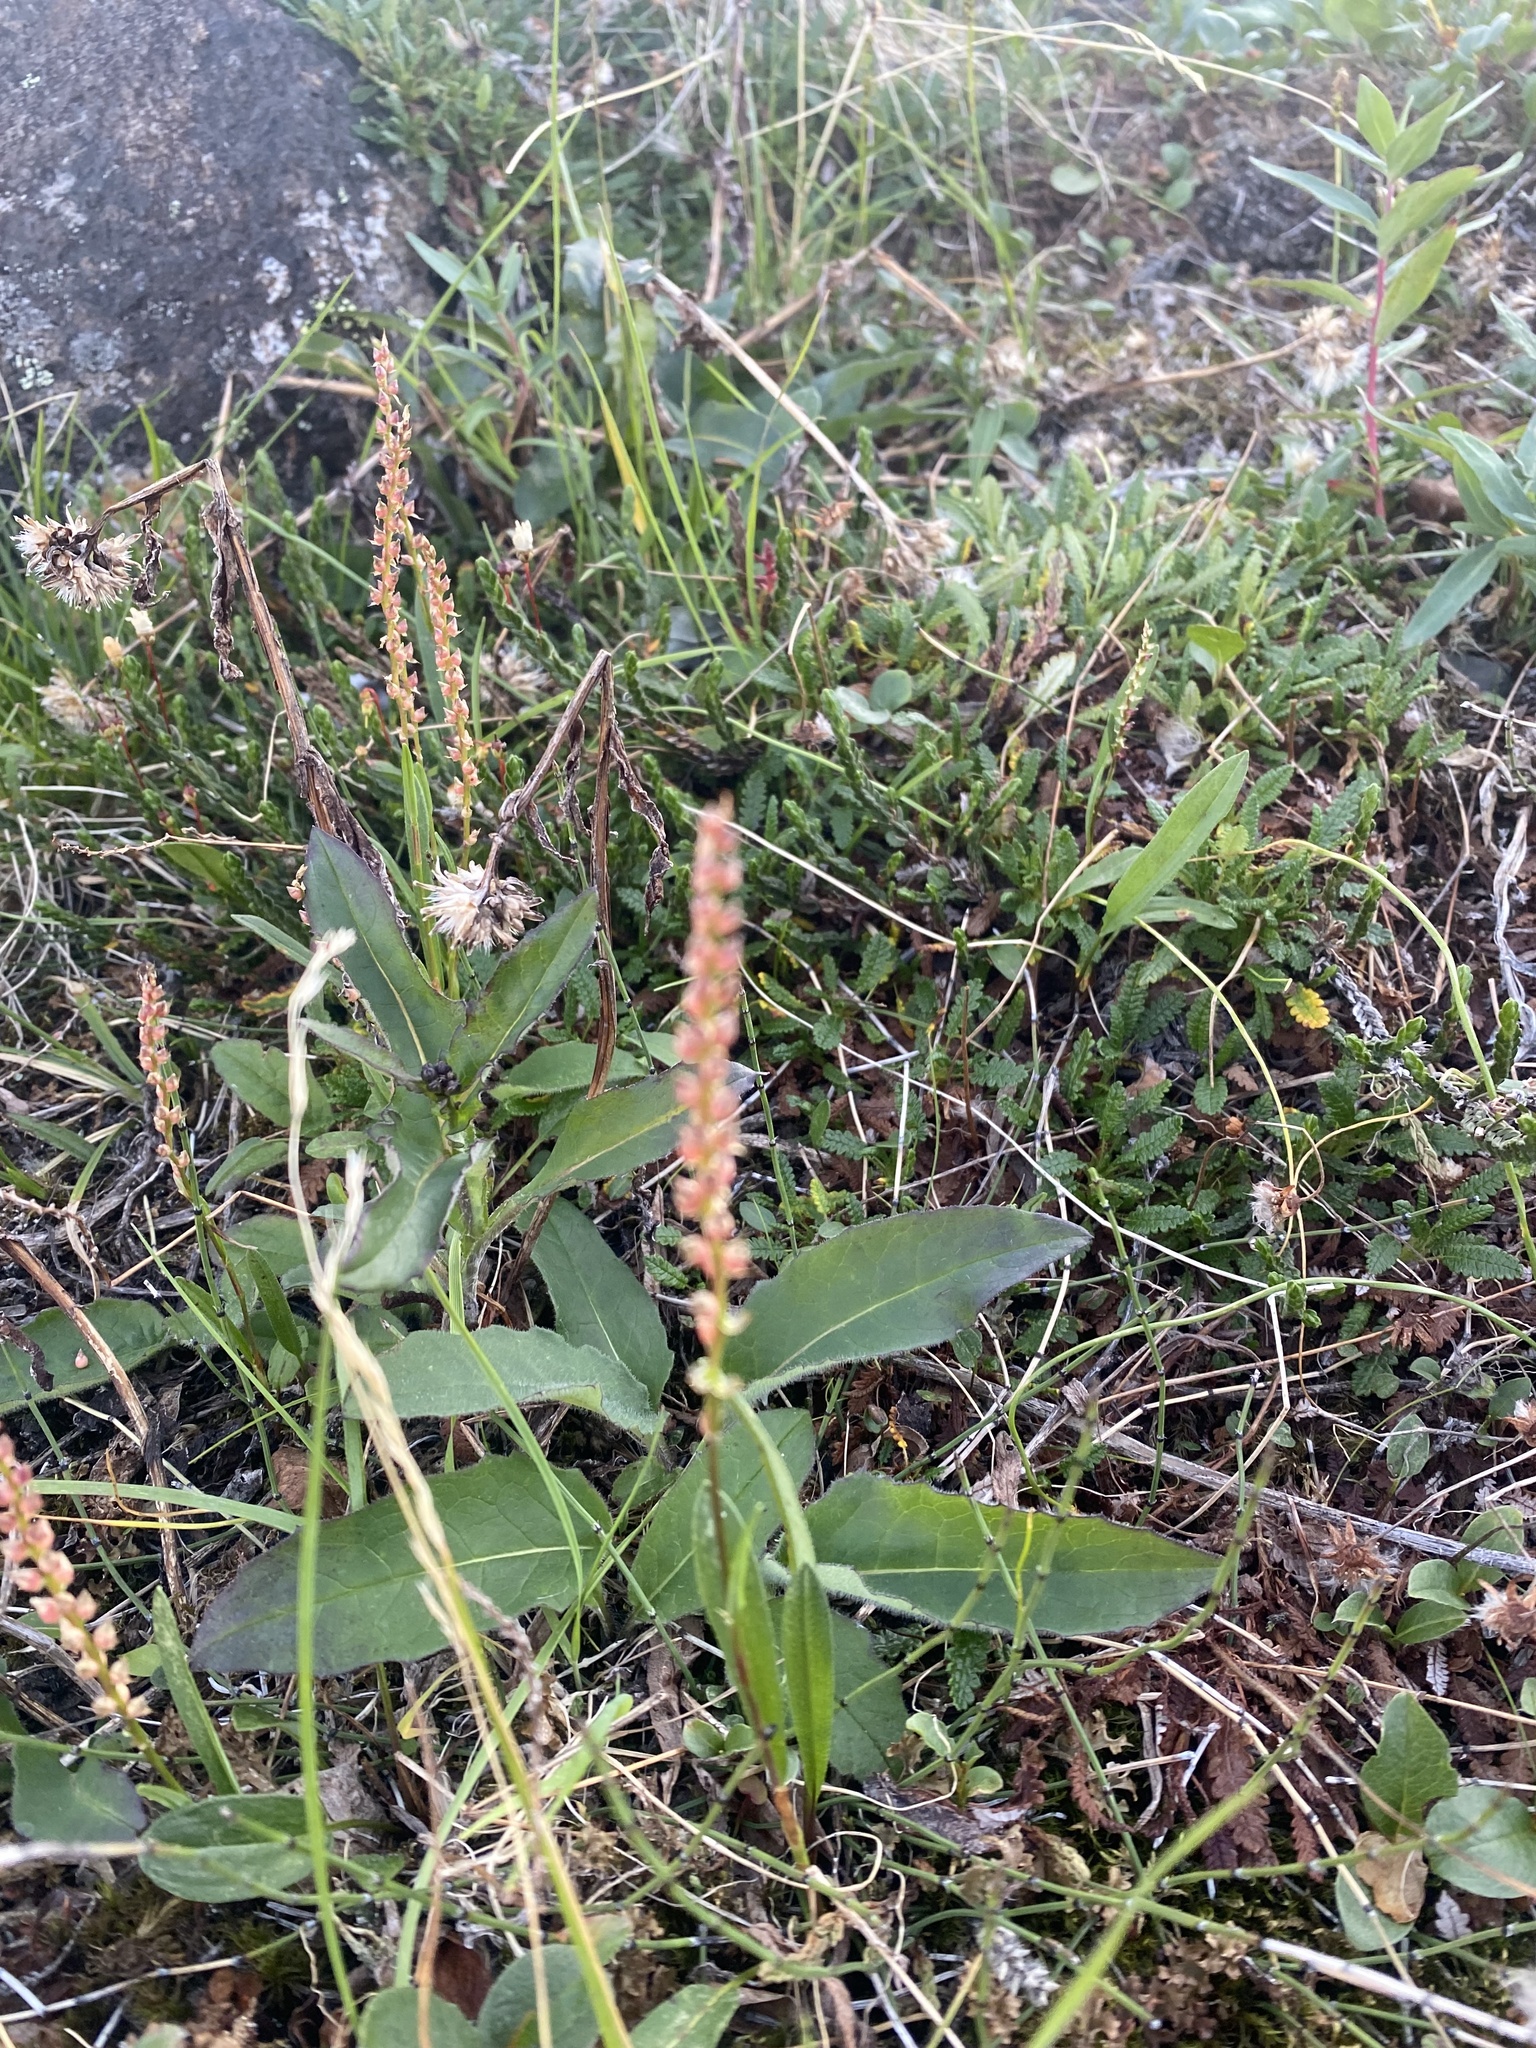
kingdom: Plantae
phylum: Tracheophyta
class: Magnoliopsida
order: Caryophyllales
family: Polygonaceae
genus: Bistorta
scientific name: Bistorta vivipara
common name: Alpine bistort
